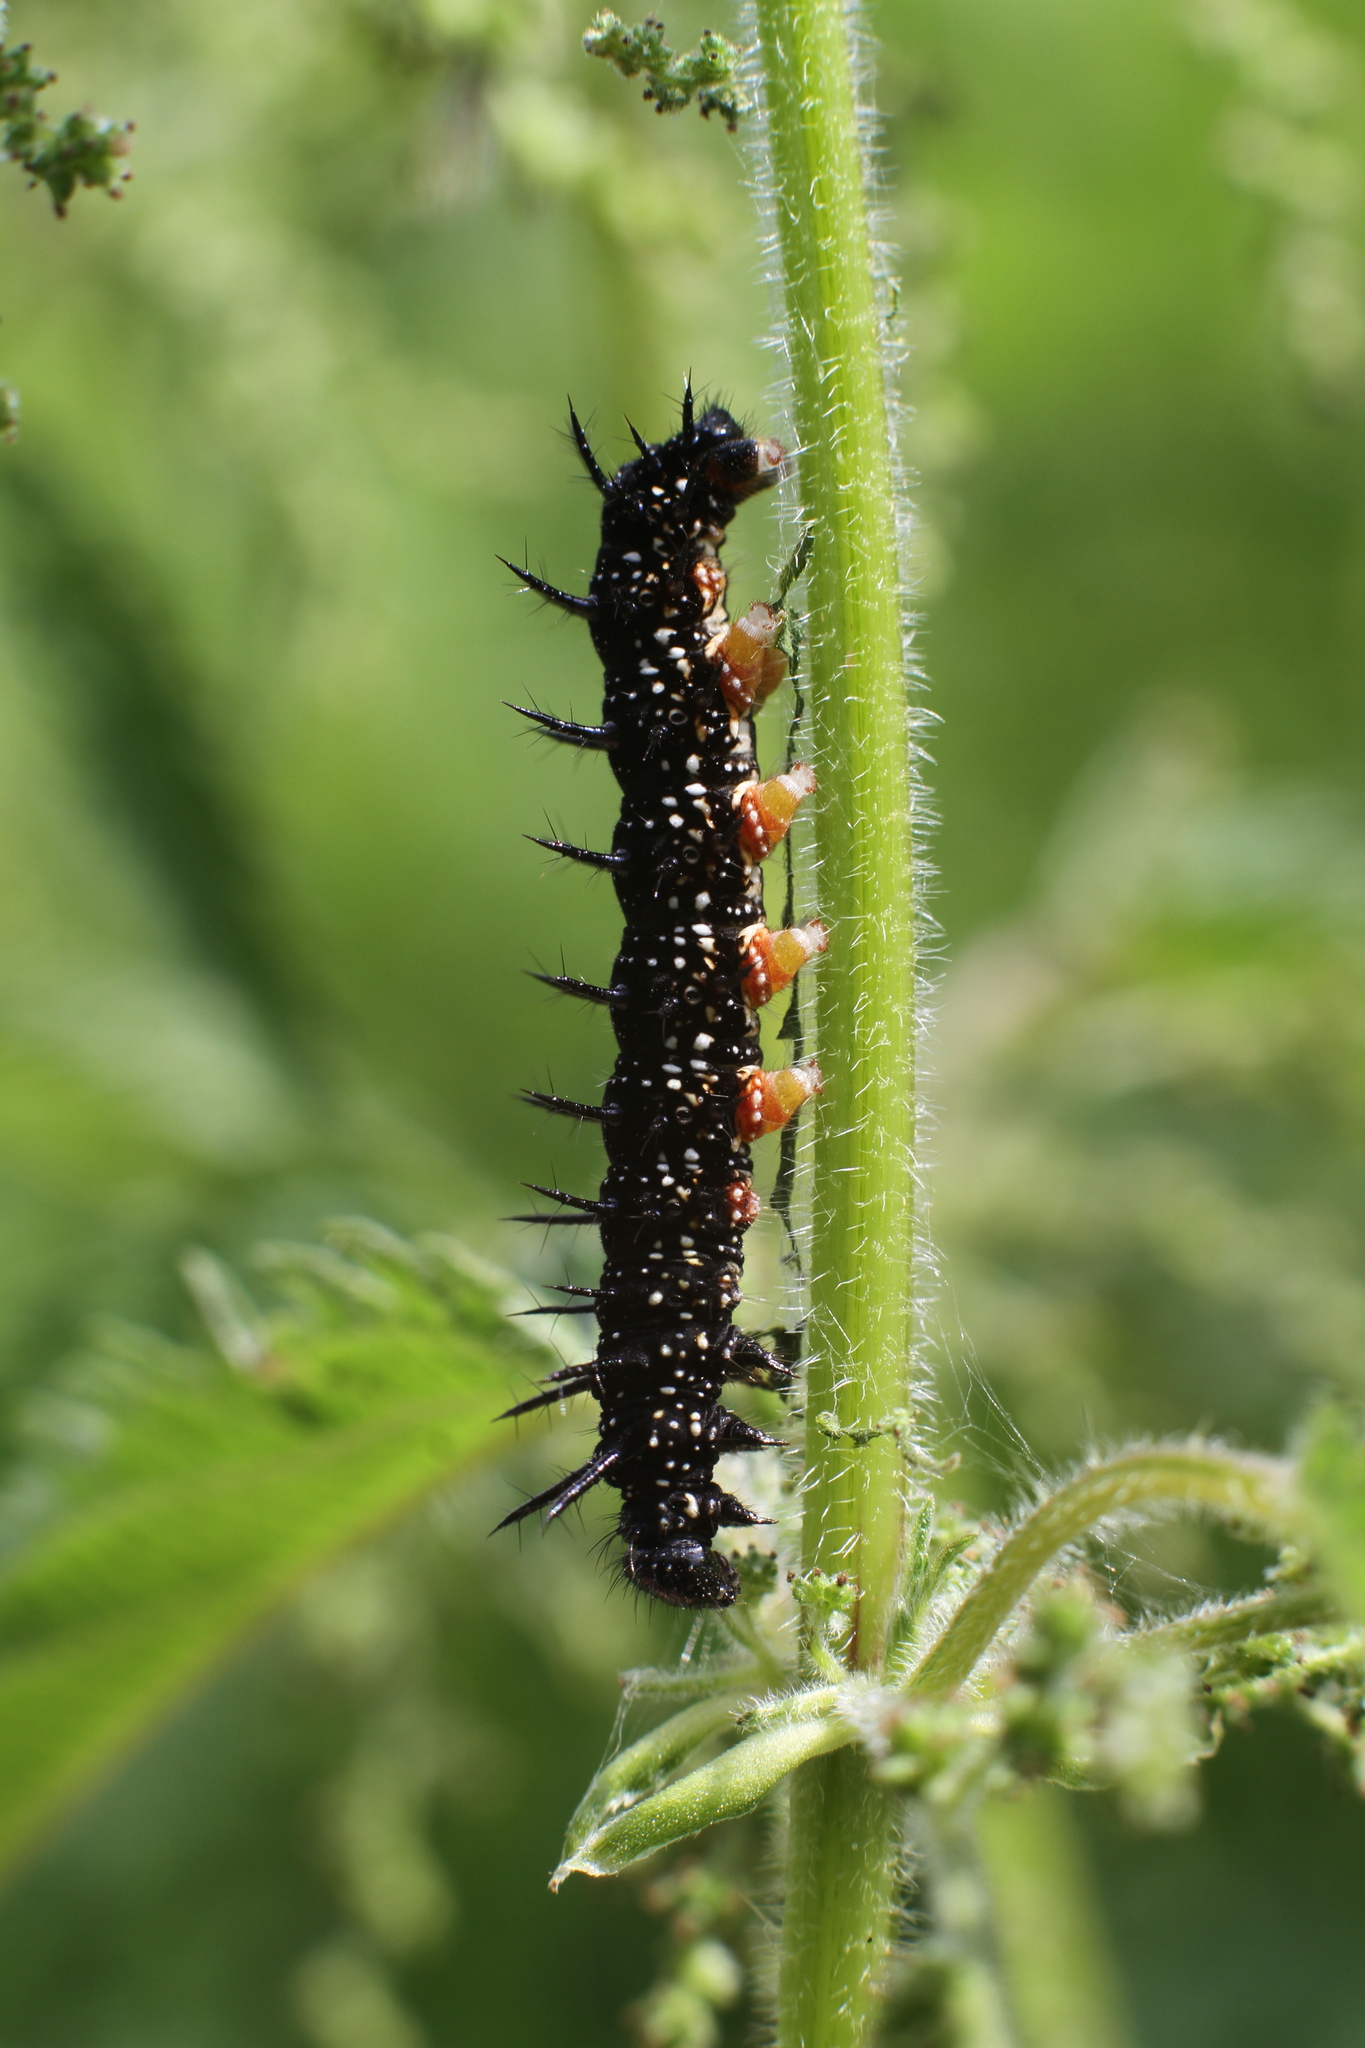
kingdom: Animalia
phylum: Arthropoda
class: Insecta
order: Lepidoptera
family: Nymphalidae
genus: Aglais
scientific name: Aglais io
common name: Peacock
